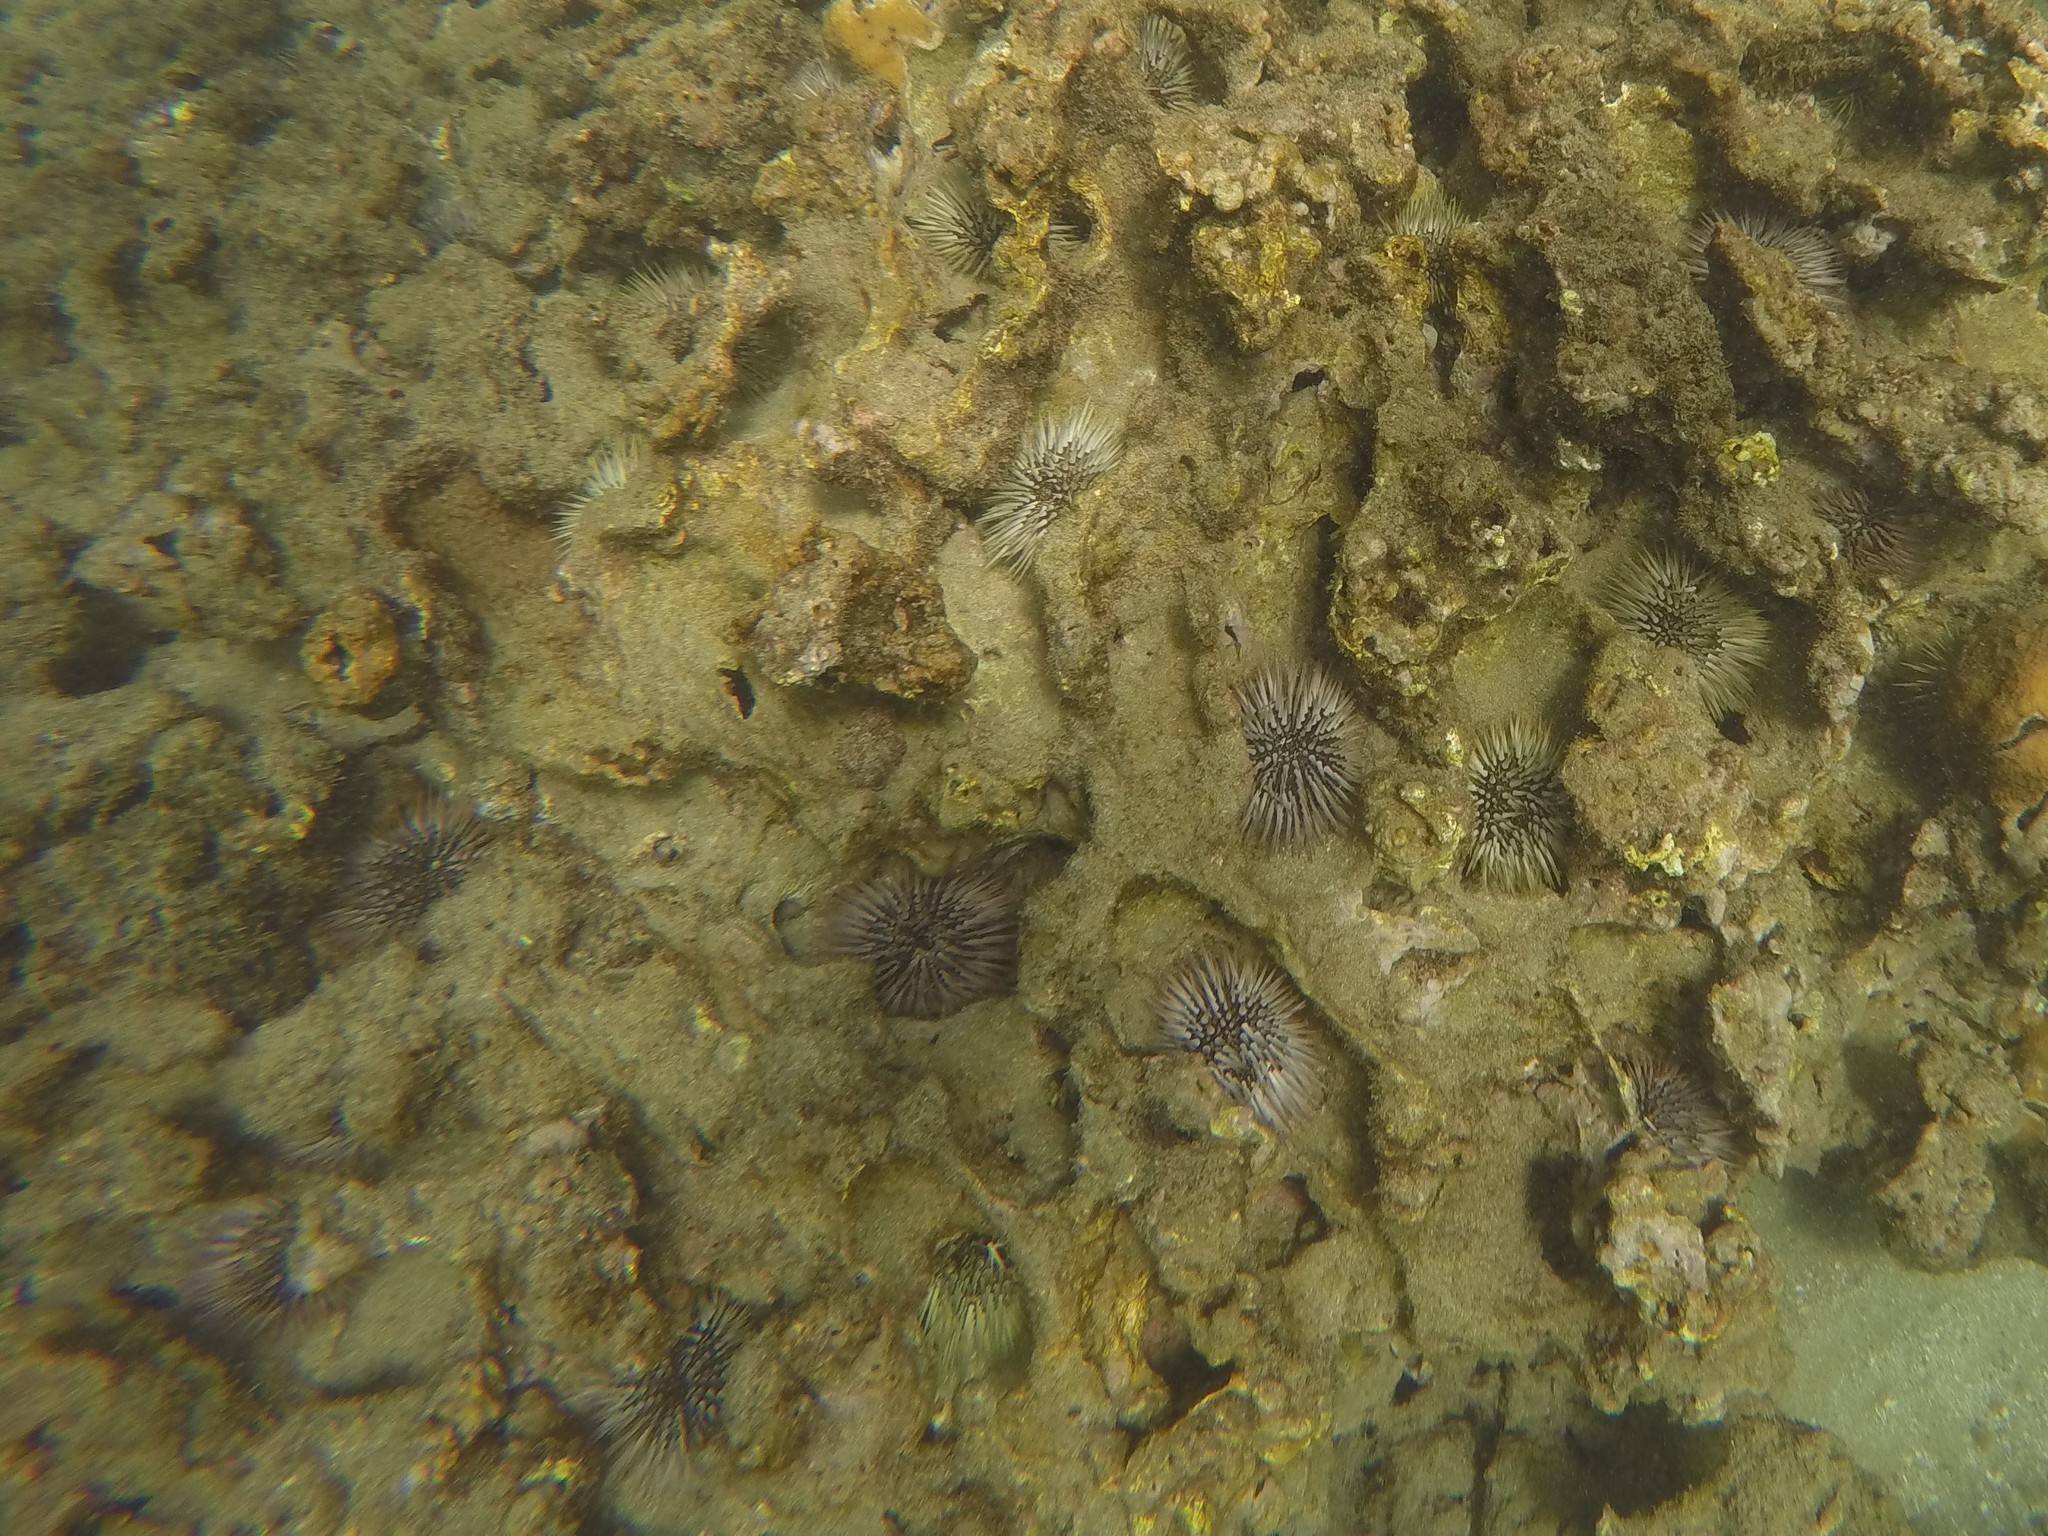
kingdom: Animalia
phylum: Echinodermata
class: Echinoidea
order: Camarodonta
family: Echinometridae
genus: Echinometra
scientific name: Echinometra mathaei
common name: Rock-boring urchin
